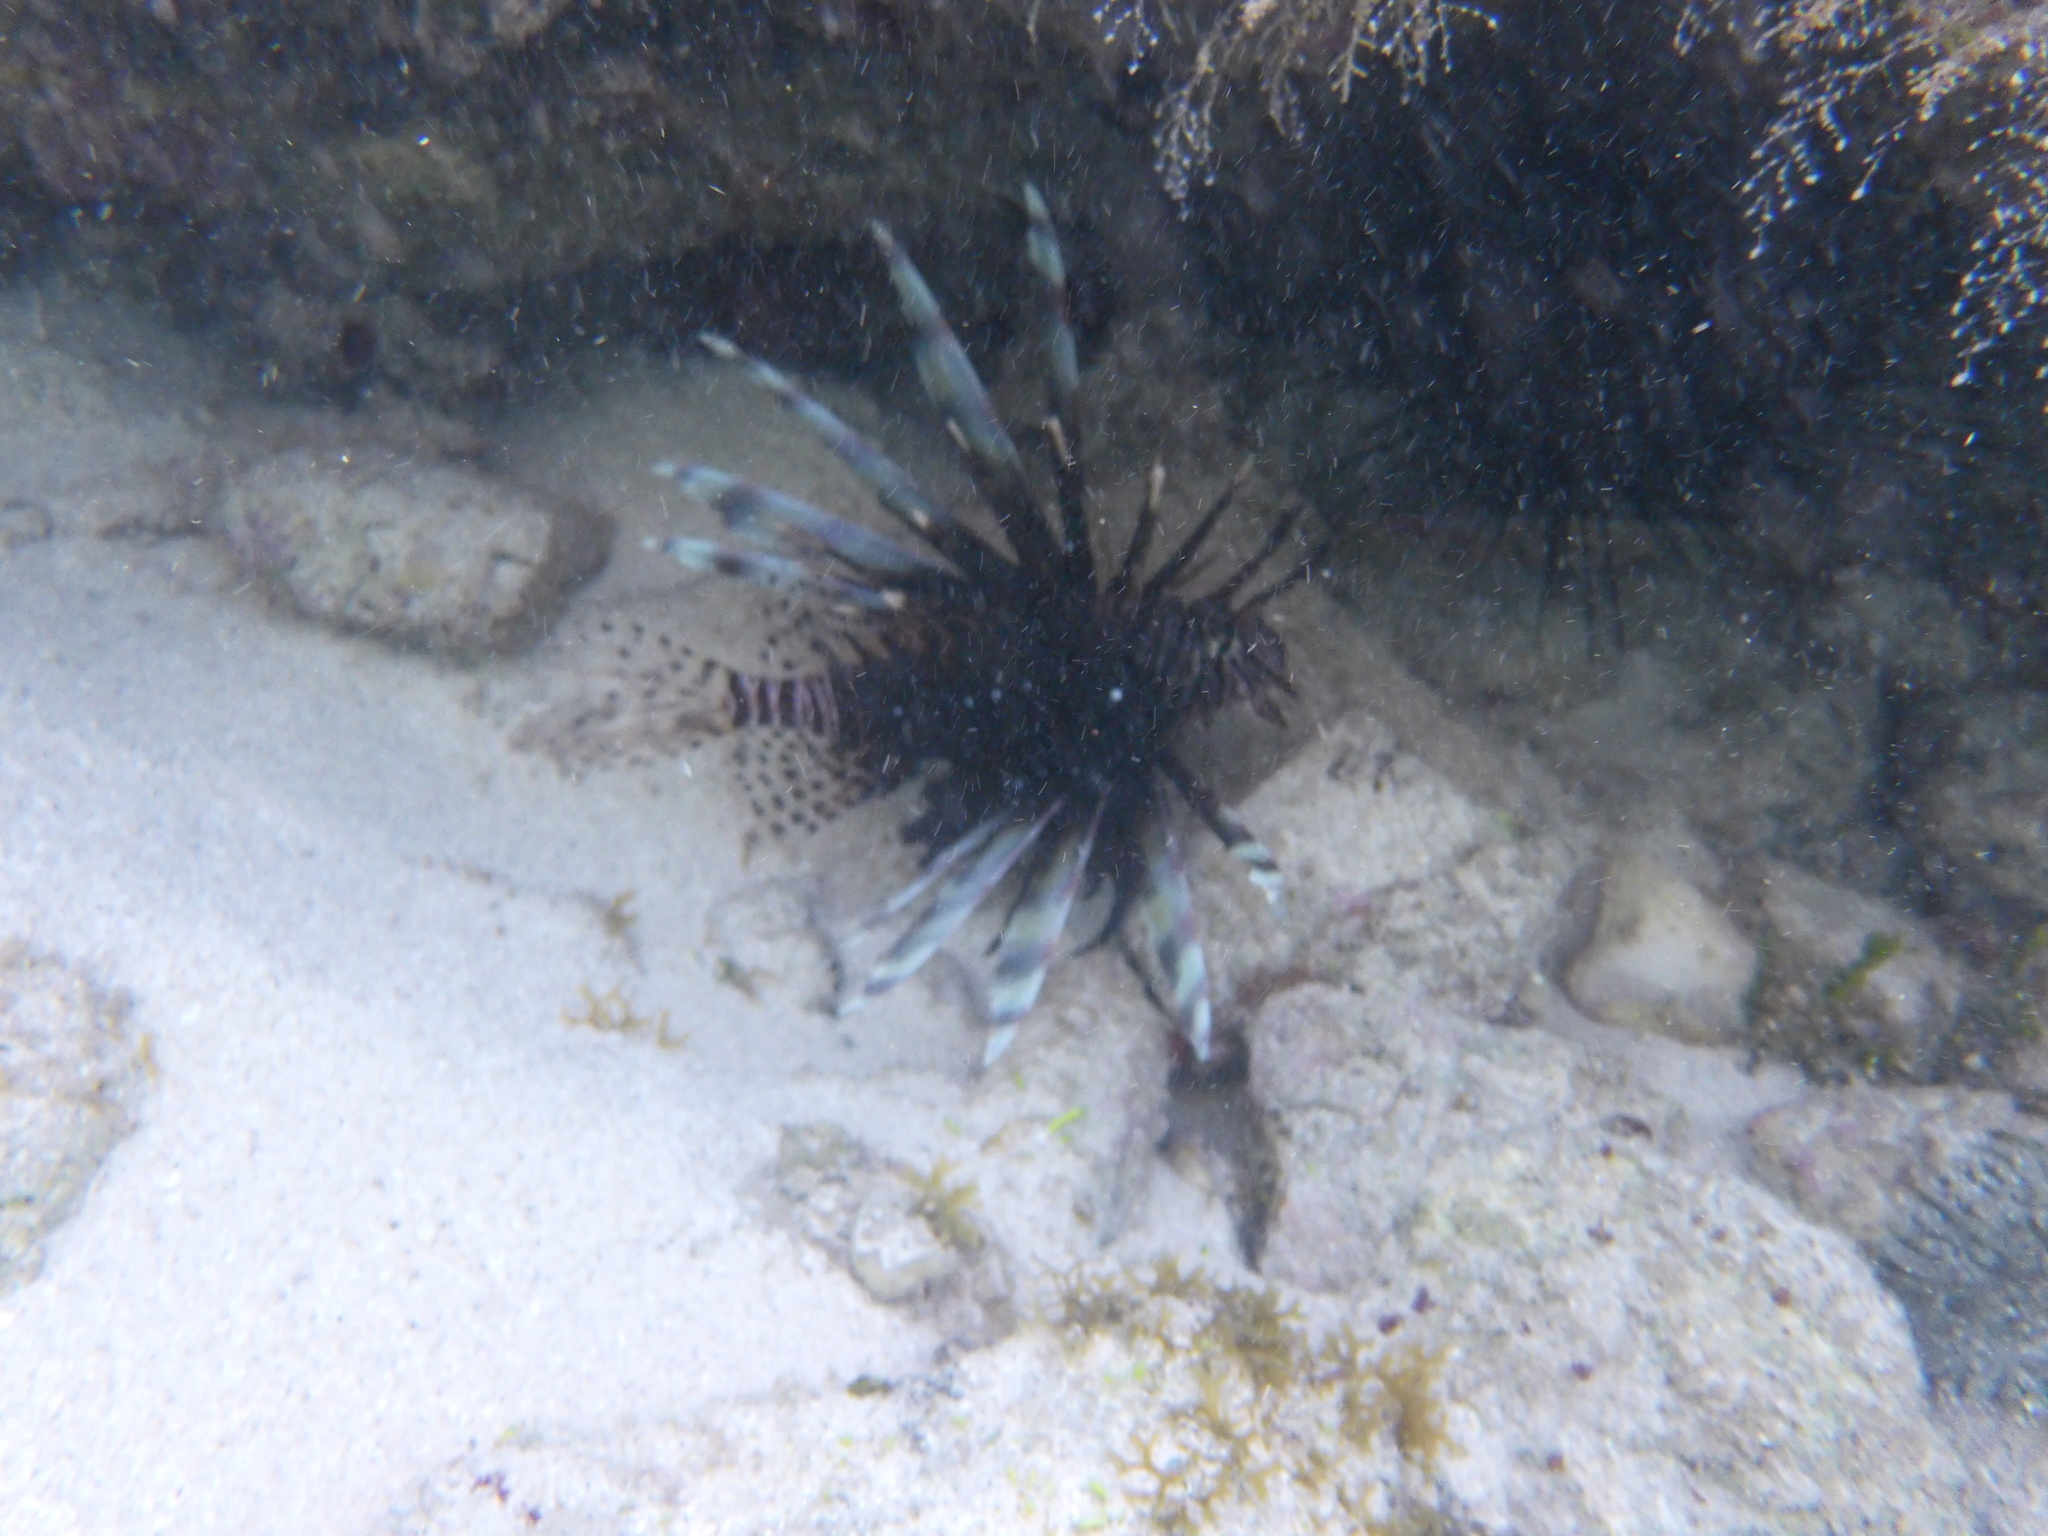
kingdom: Animalia
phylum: Chordata
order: Scorpaeniformes
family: Scorpaenidae
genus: Pterois
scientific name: Pterois volitans
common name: Lionfish
